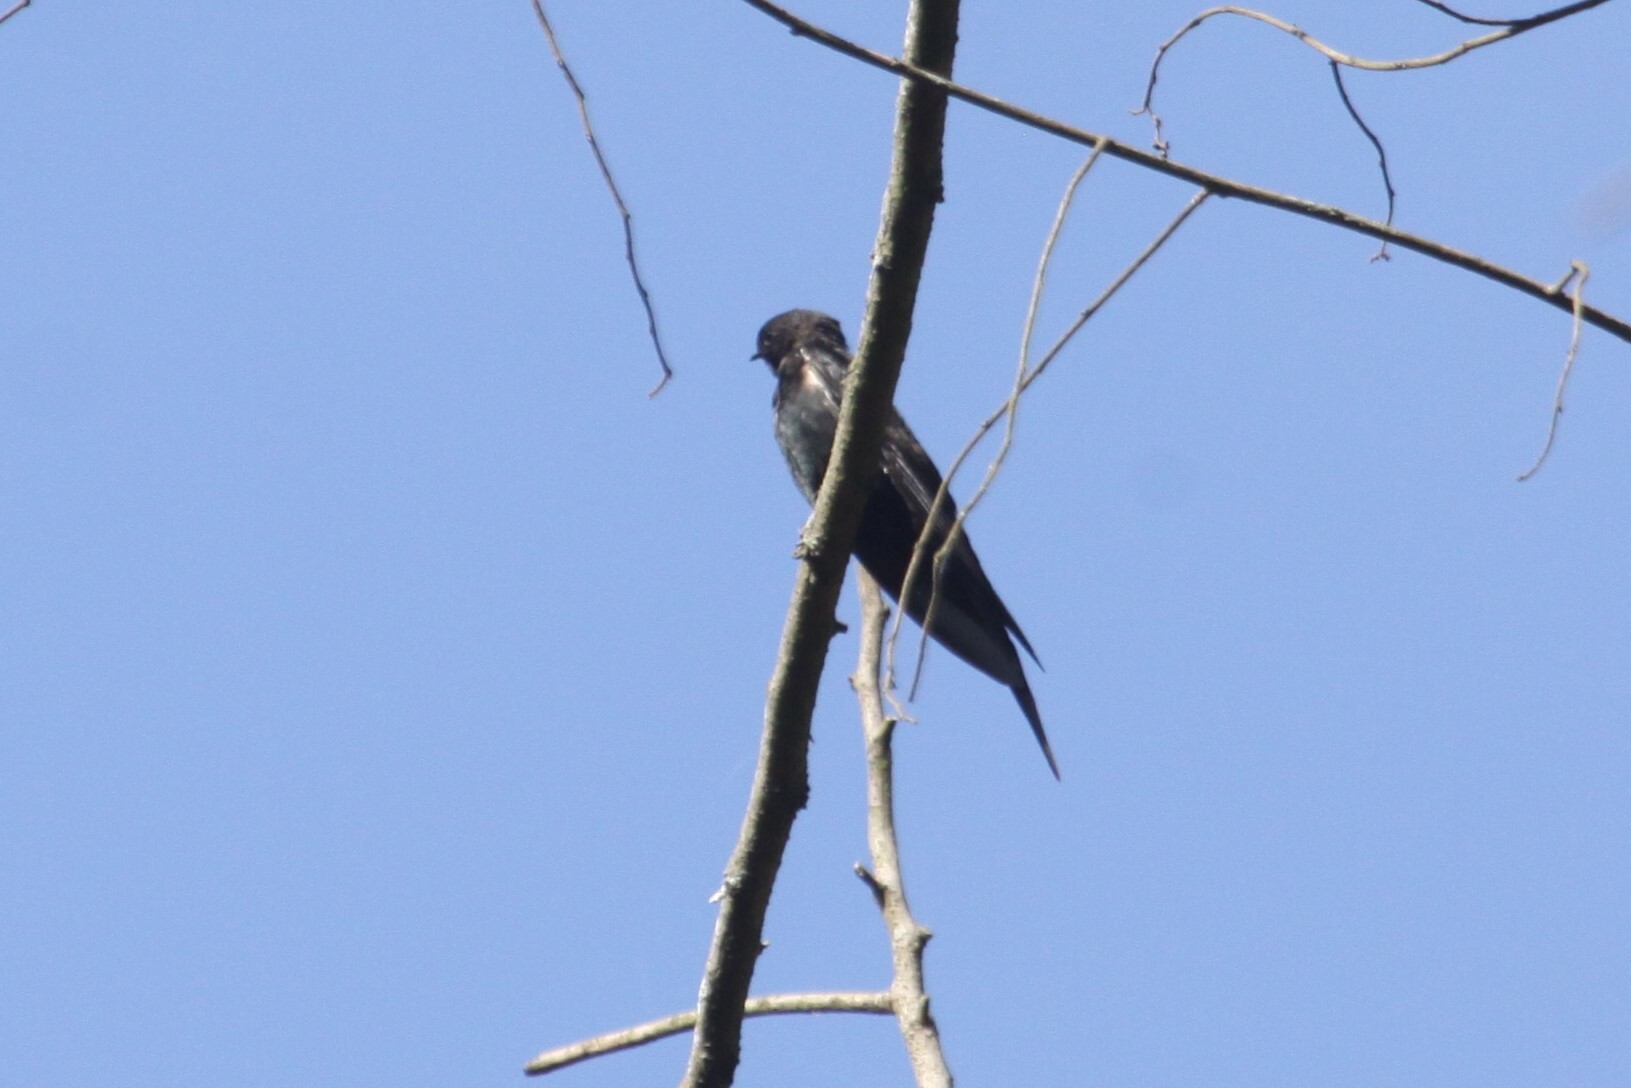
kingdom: Animalia
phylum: Chordata
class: Aves
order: Passeriformes
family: Hirundinidae
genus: Psalidoprocne
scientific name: Psalidoprocne pristoptera
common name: Black saw-wing
